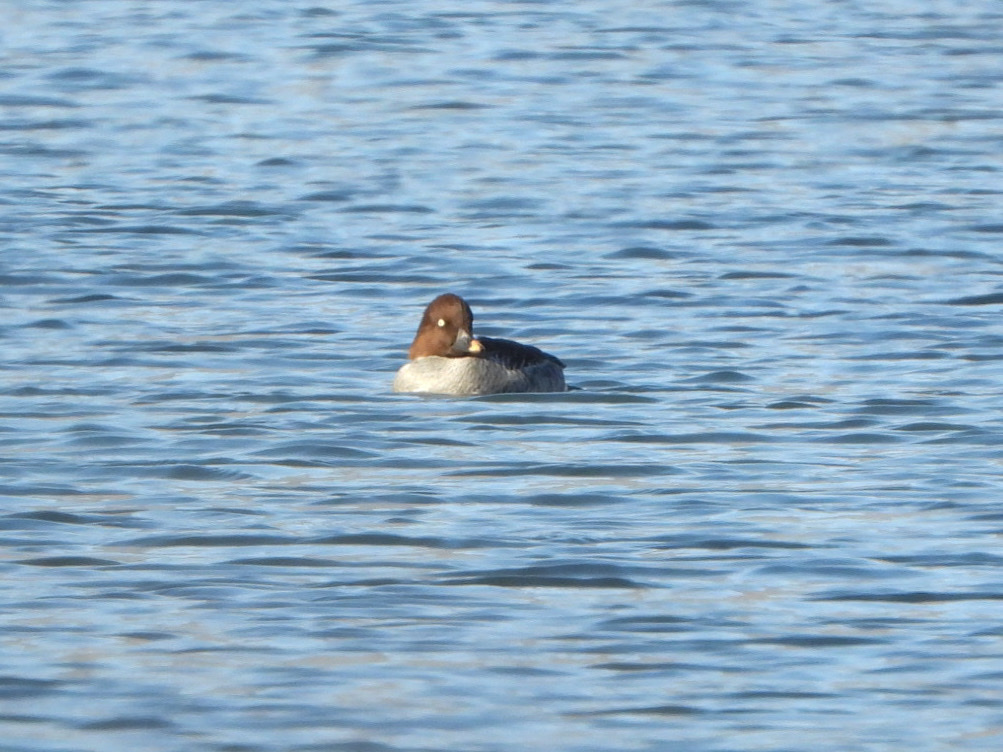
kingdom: Animalia
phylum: Chordata
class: Aves
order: Anseriformes
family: Anatidae
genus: Bucephala
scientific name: Bucephala clangula
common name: Common goldeneye
